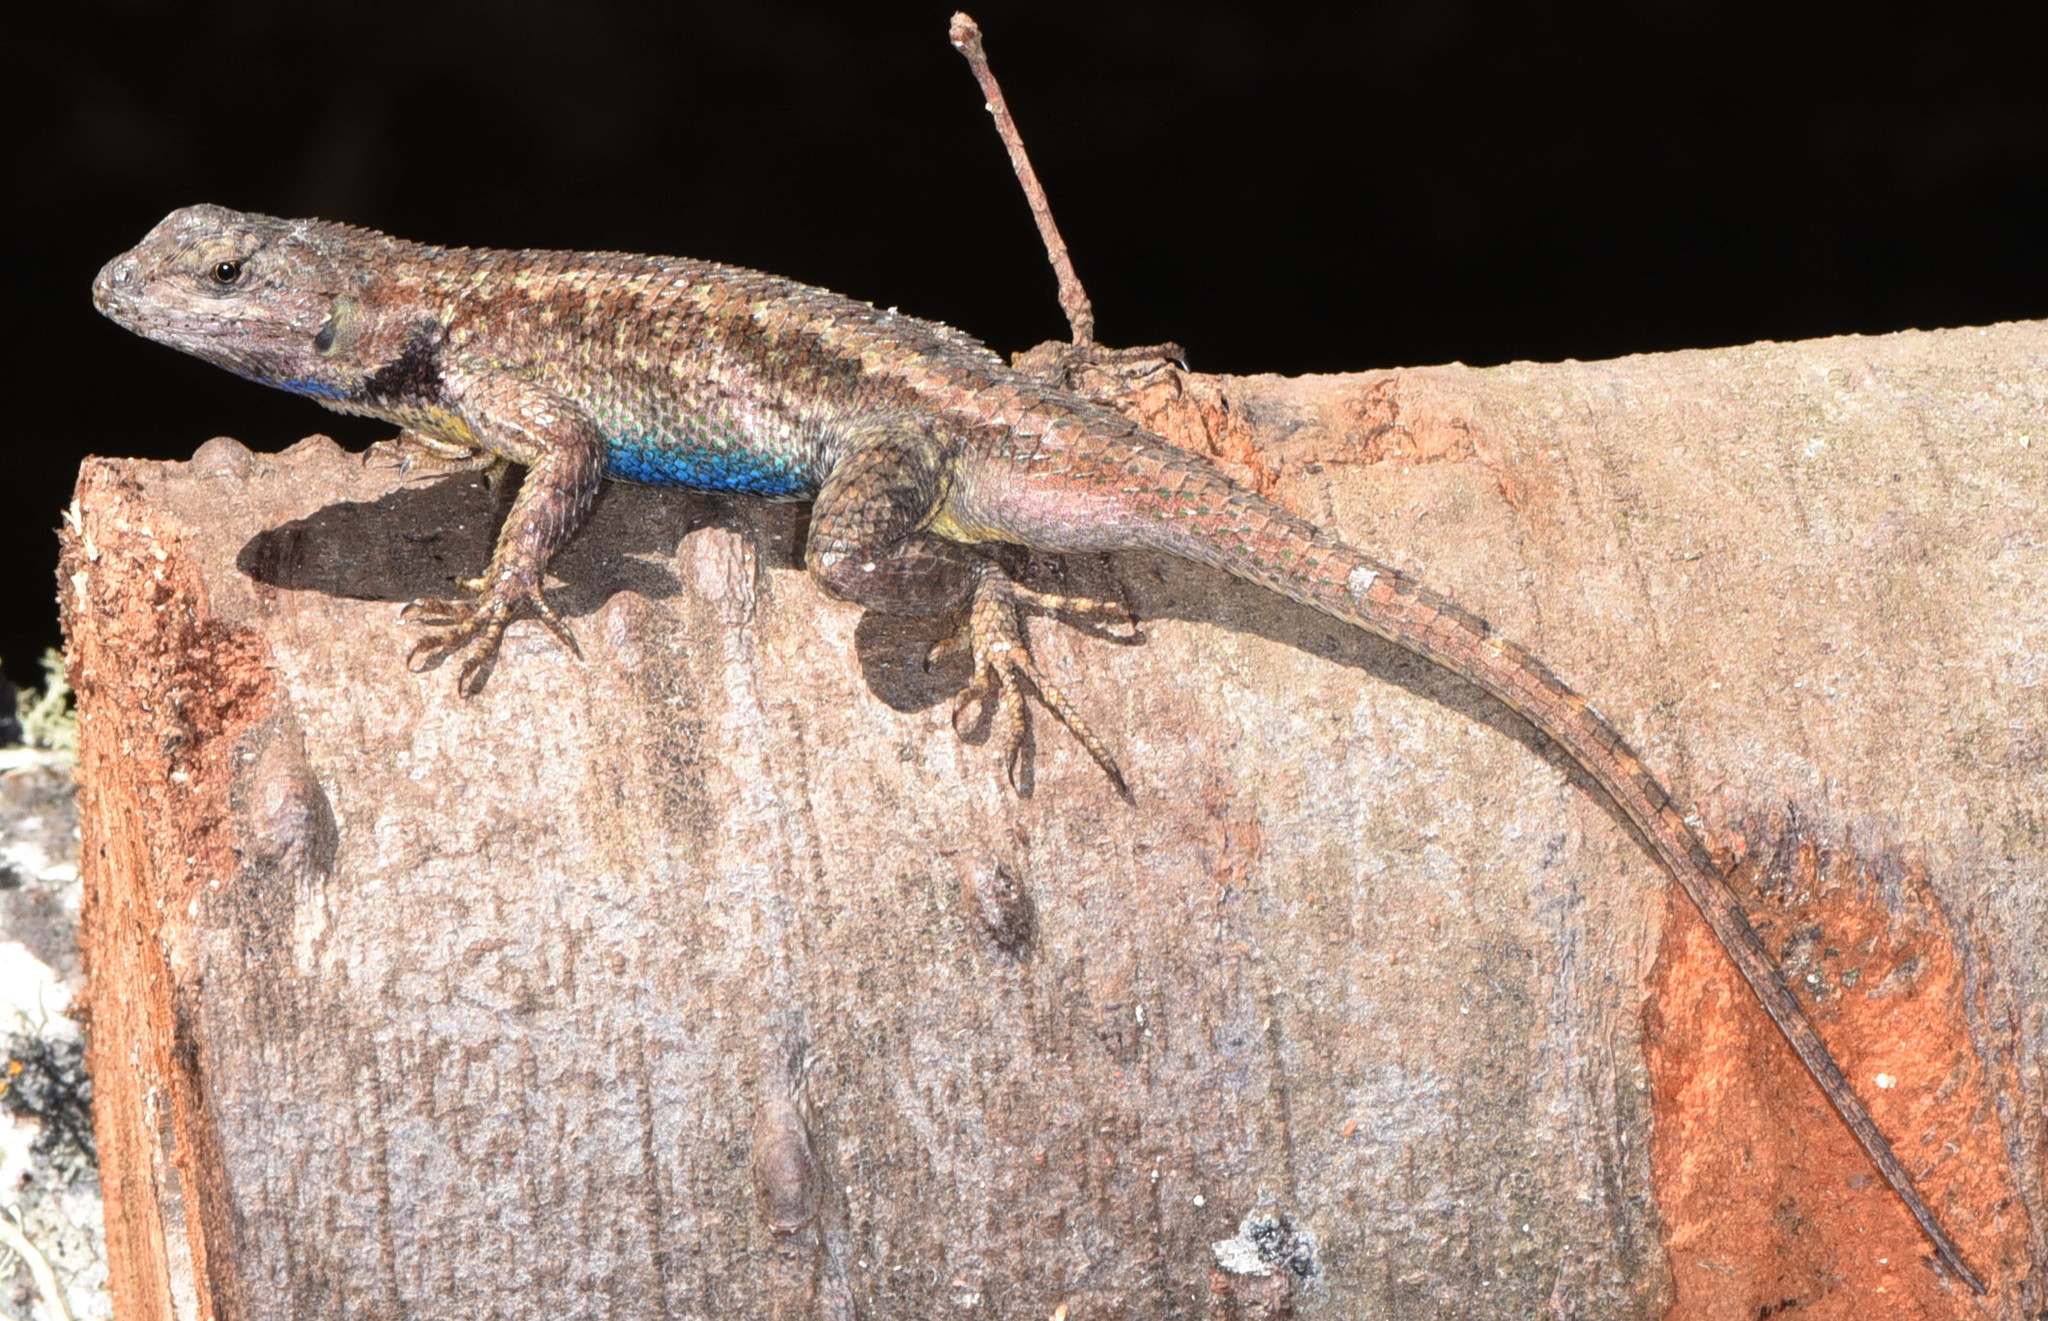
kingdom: Animalia
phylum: Chordata
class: Squamata
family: Phrynosomatidae
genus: Sceloporus
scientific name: Sceloporus occidentalis
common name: Western fence lizard
